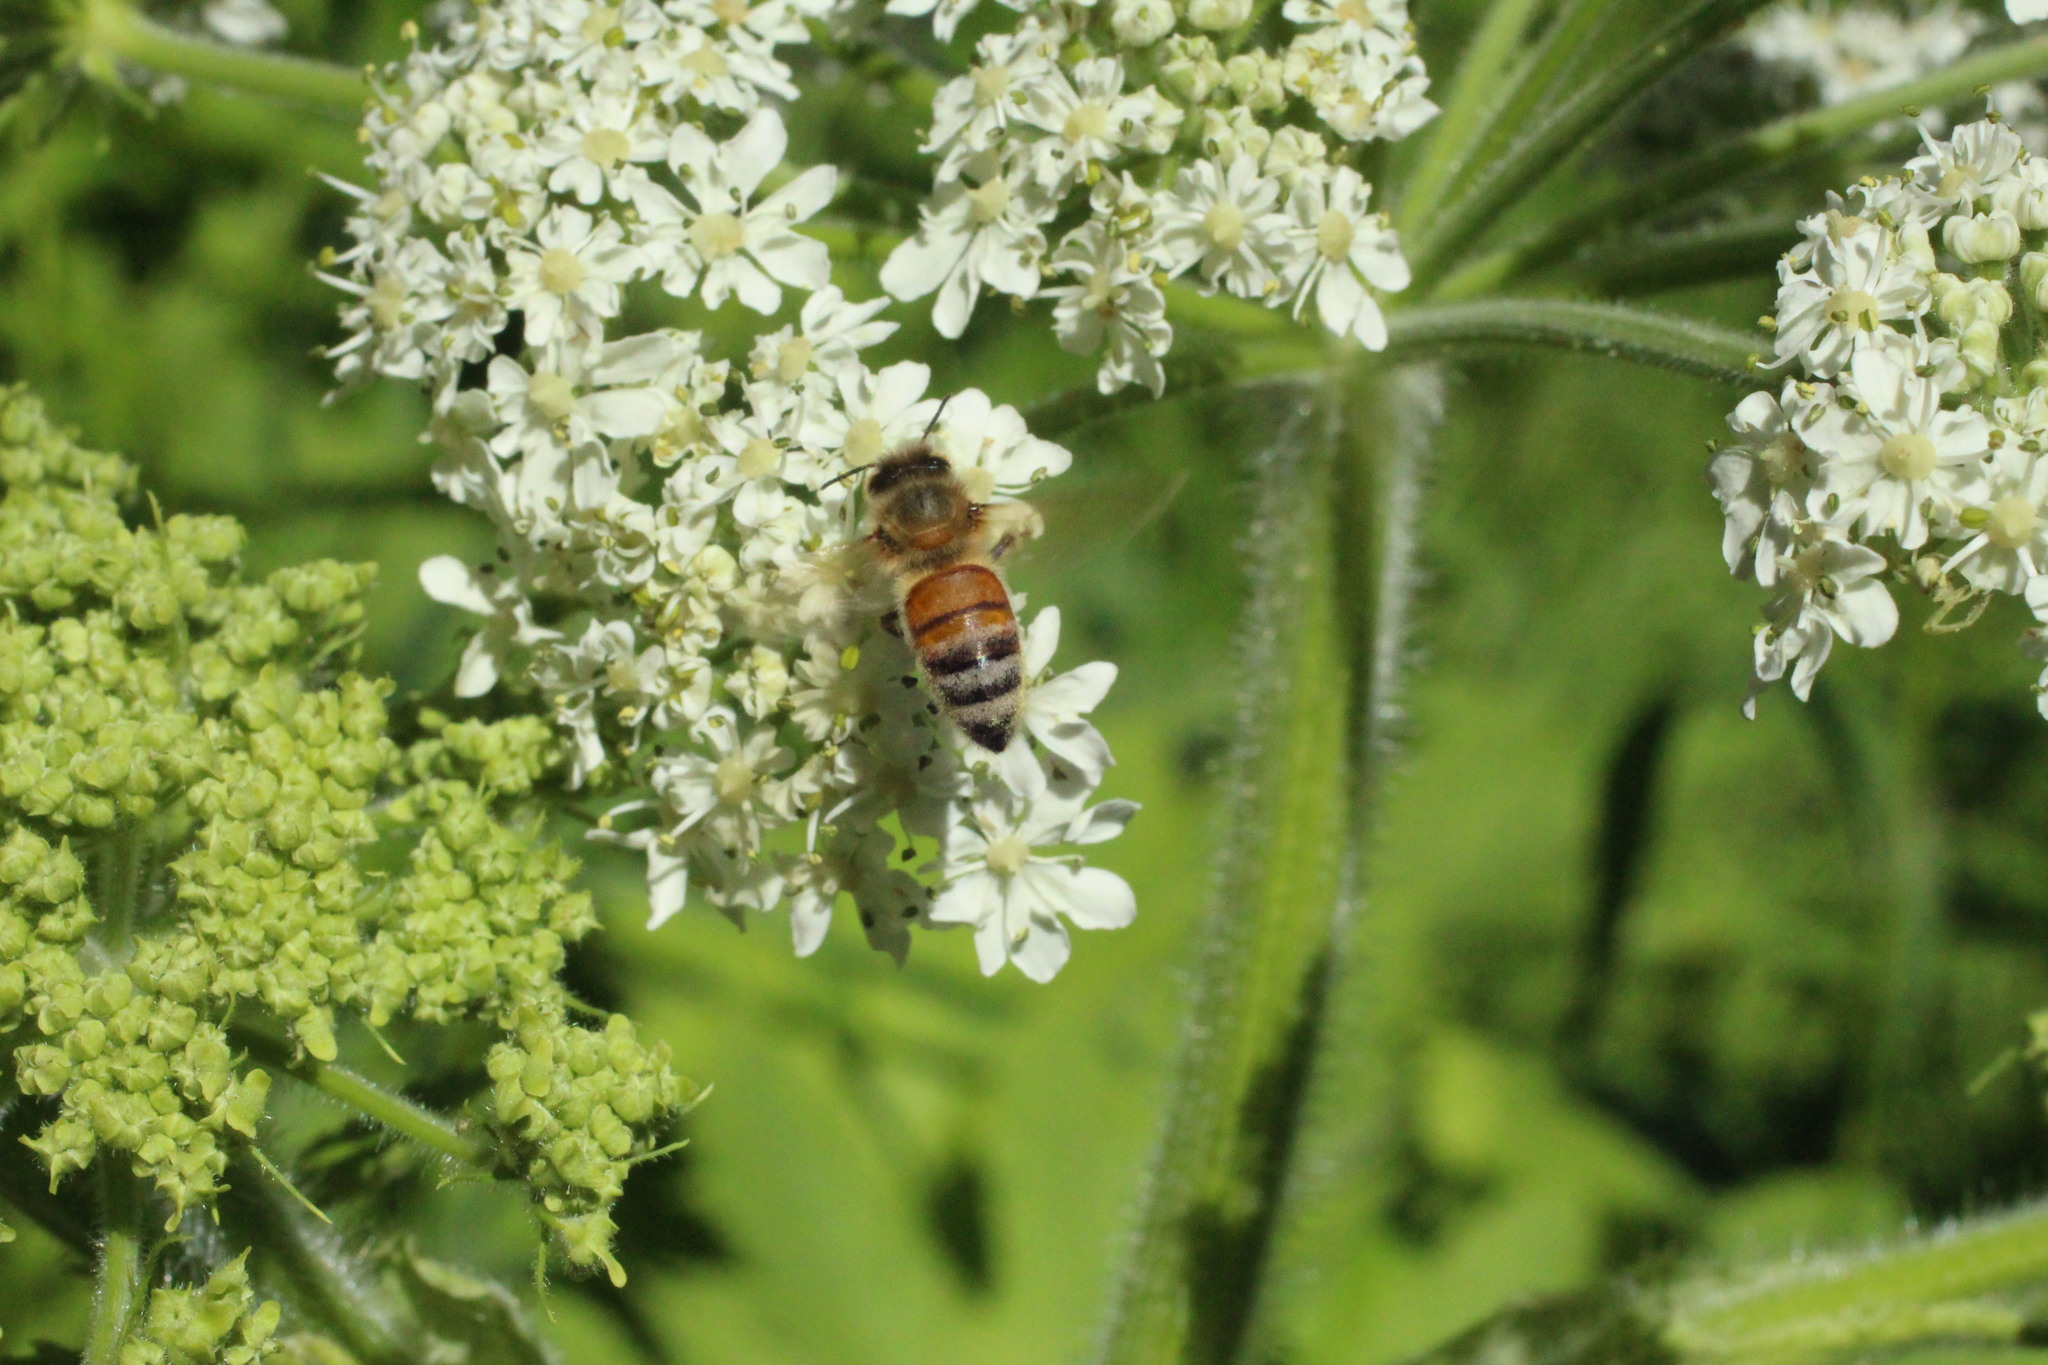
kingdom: Animalia
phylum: Arthropoda
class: Insecta
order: Hymenoptera
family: Apidae
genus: Apis
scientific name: Apis mellifera
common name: Honey bee
